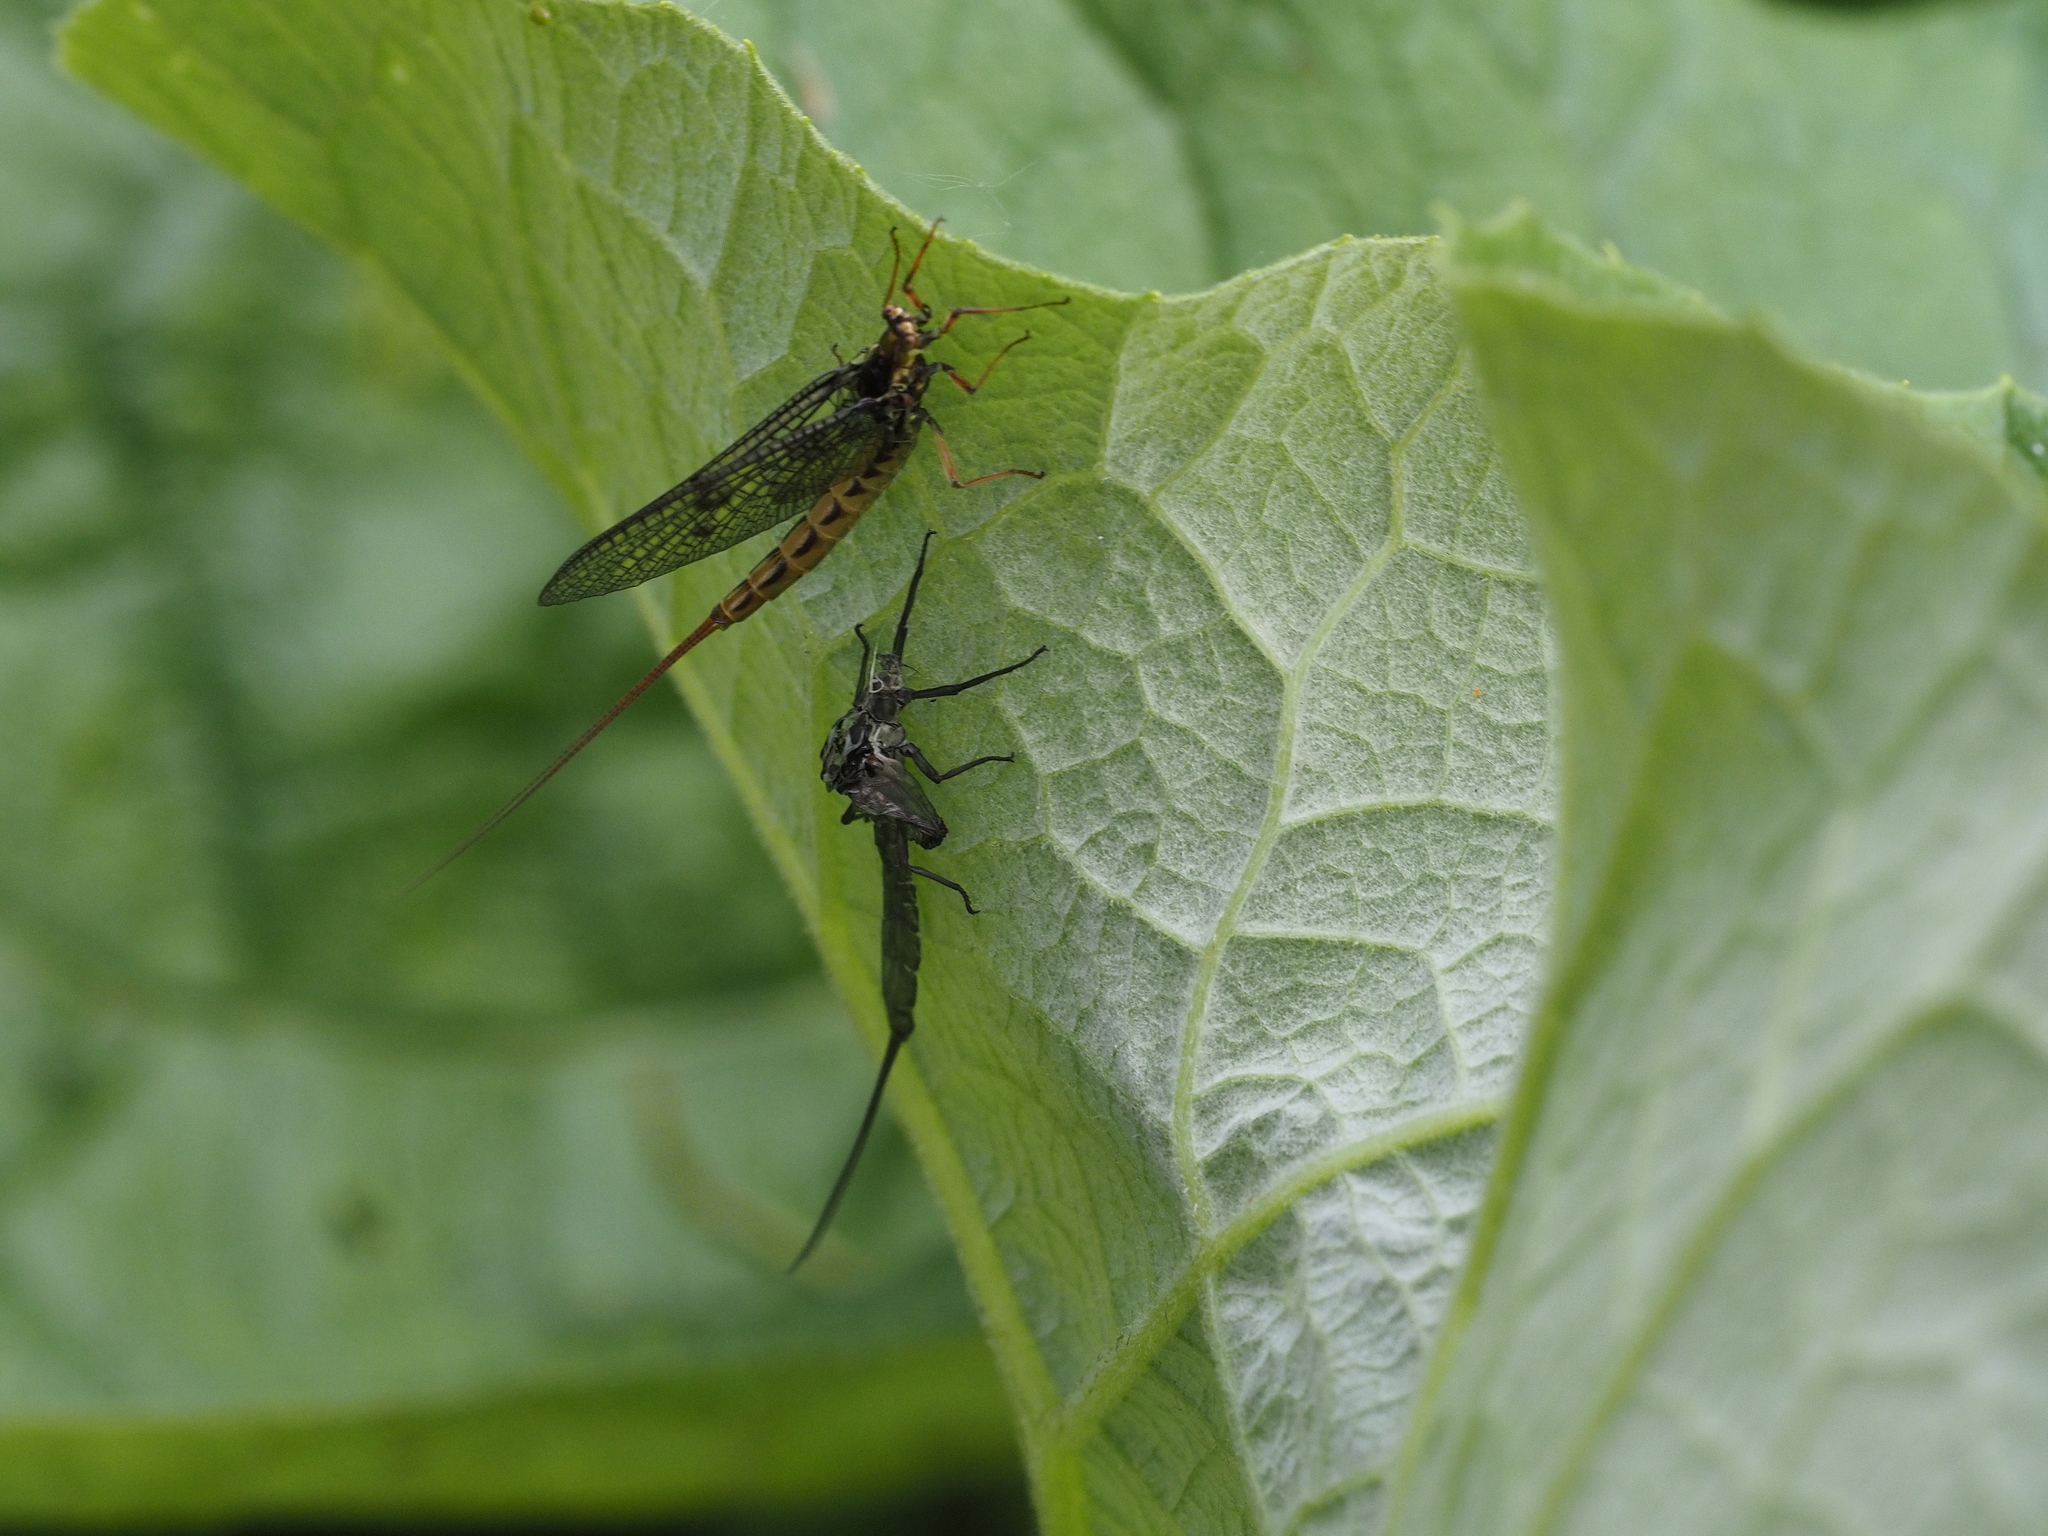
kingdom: Animalia
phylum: Arthropoda
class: Insecta
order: Ephemeroptera
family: Ephemeridae
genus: Ephemera
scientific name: Ephemera vulgata
